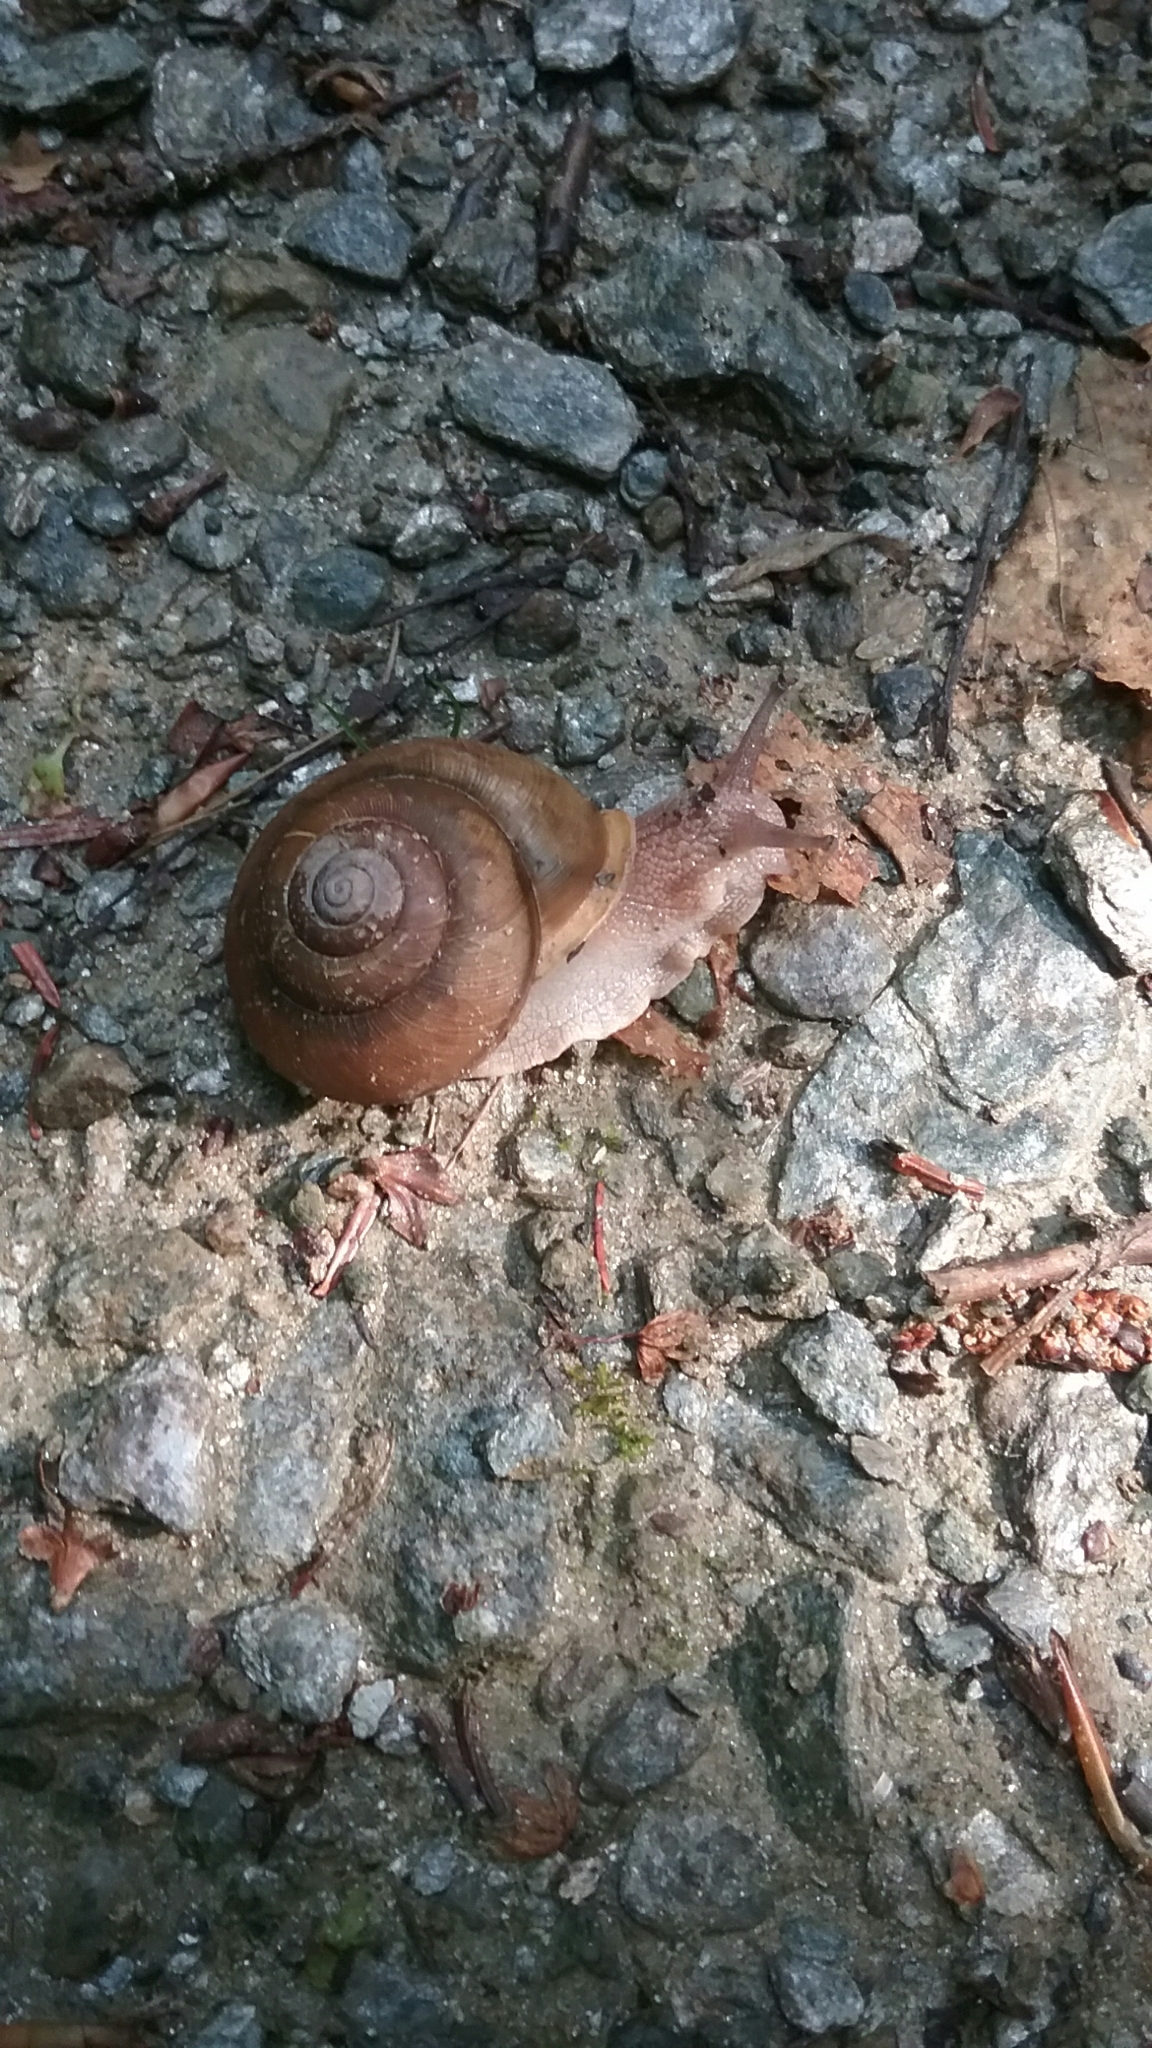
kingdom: Animalia
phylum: Mollusca
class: Gastropoda
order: Stylommatophora
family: Polygyridae
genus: Neohelix
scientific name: Neohelix albolabris
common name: Eastern whitelip
